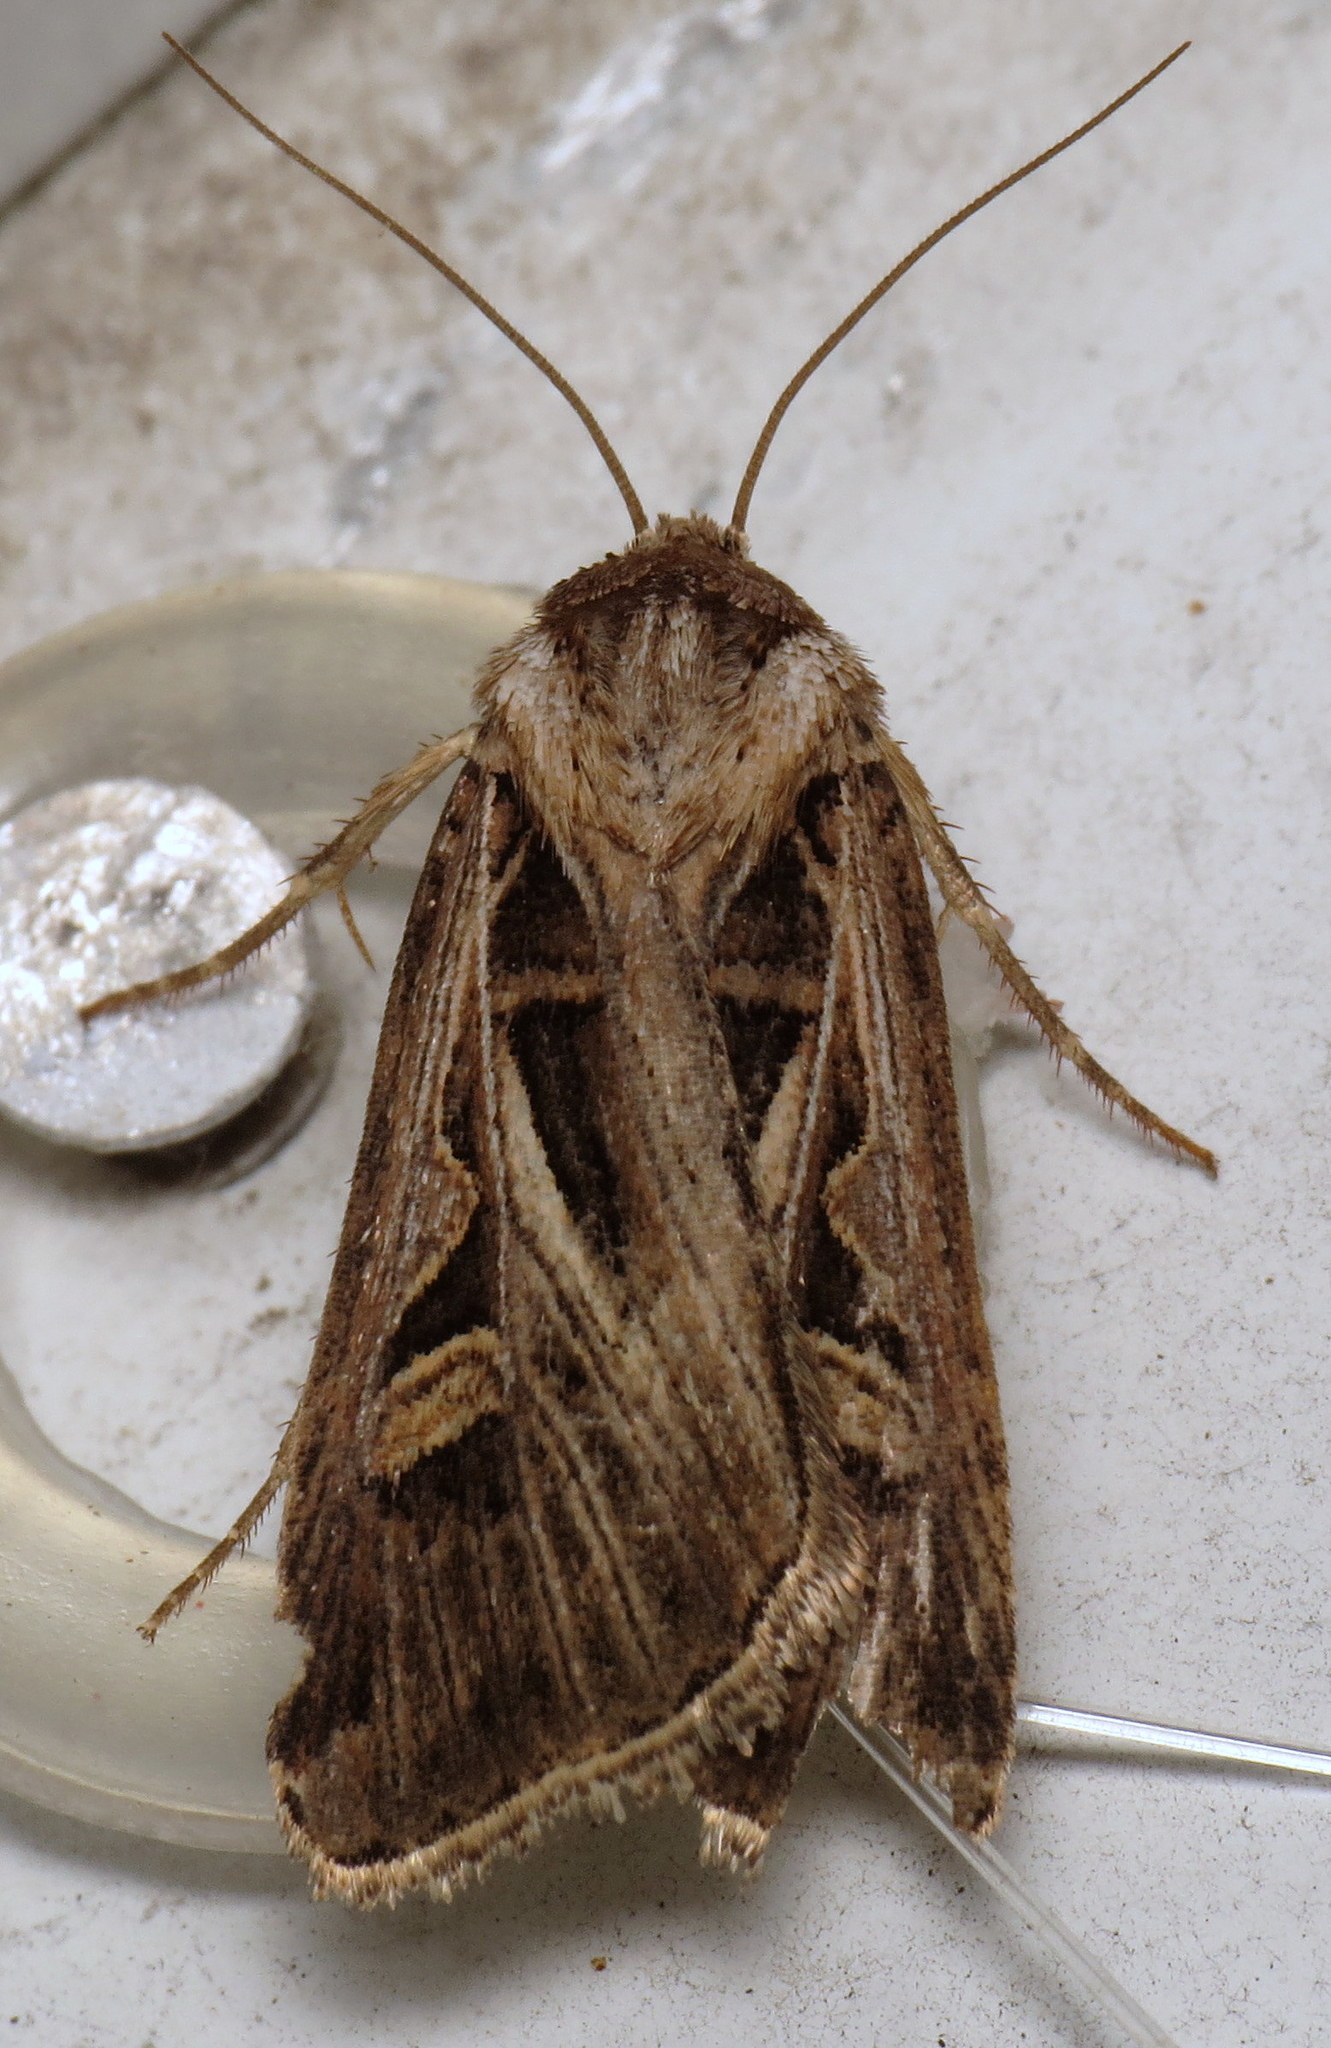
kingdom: Animalia
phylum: Arthropoda
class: Insecta
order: Lepidoptera
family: Noctuidae
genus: Feltia
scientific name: Feltia jaculifera
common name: Dingy cutworm moth
